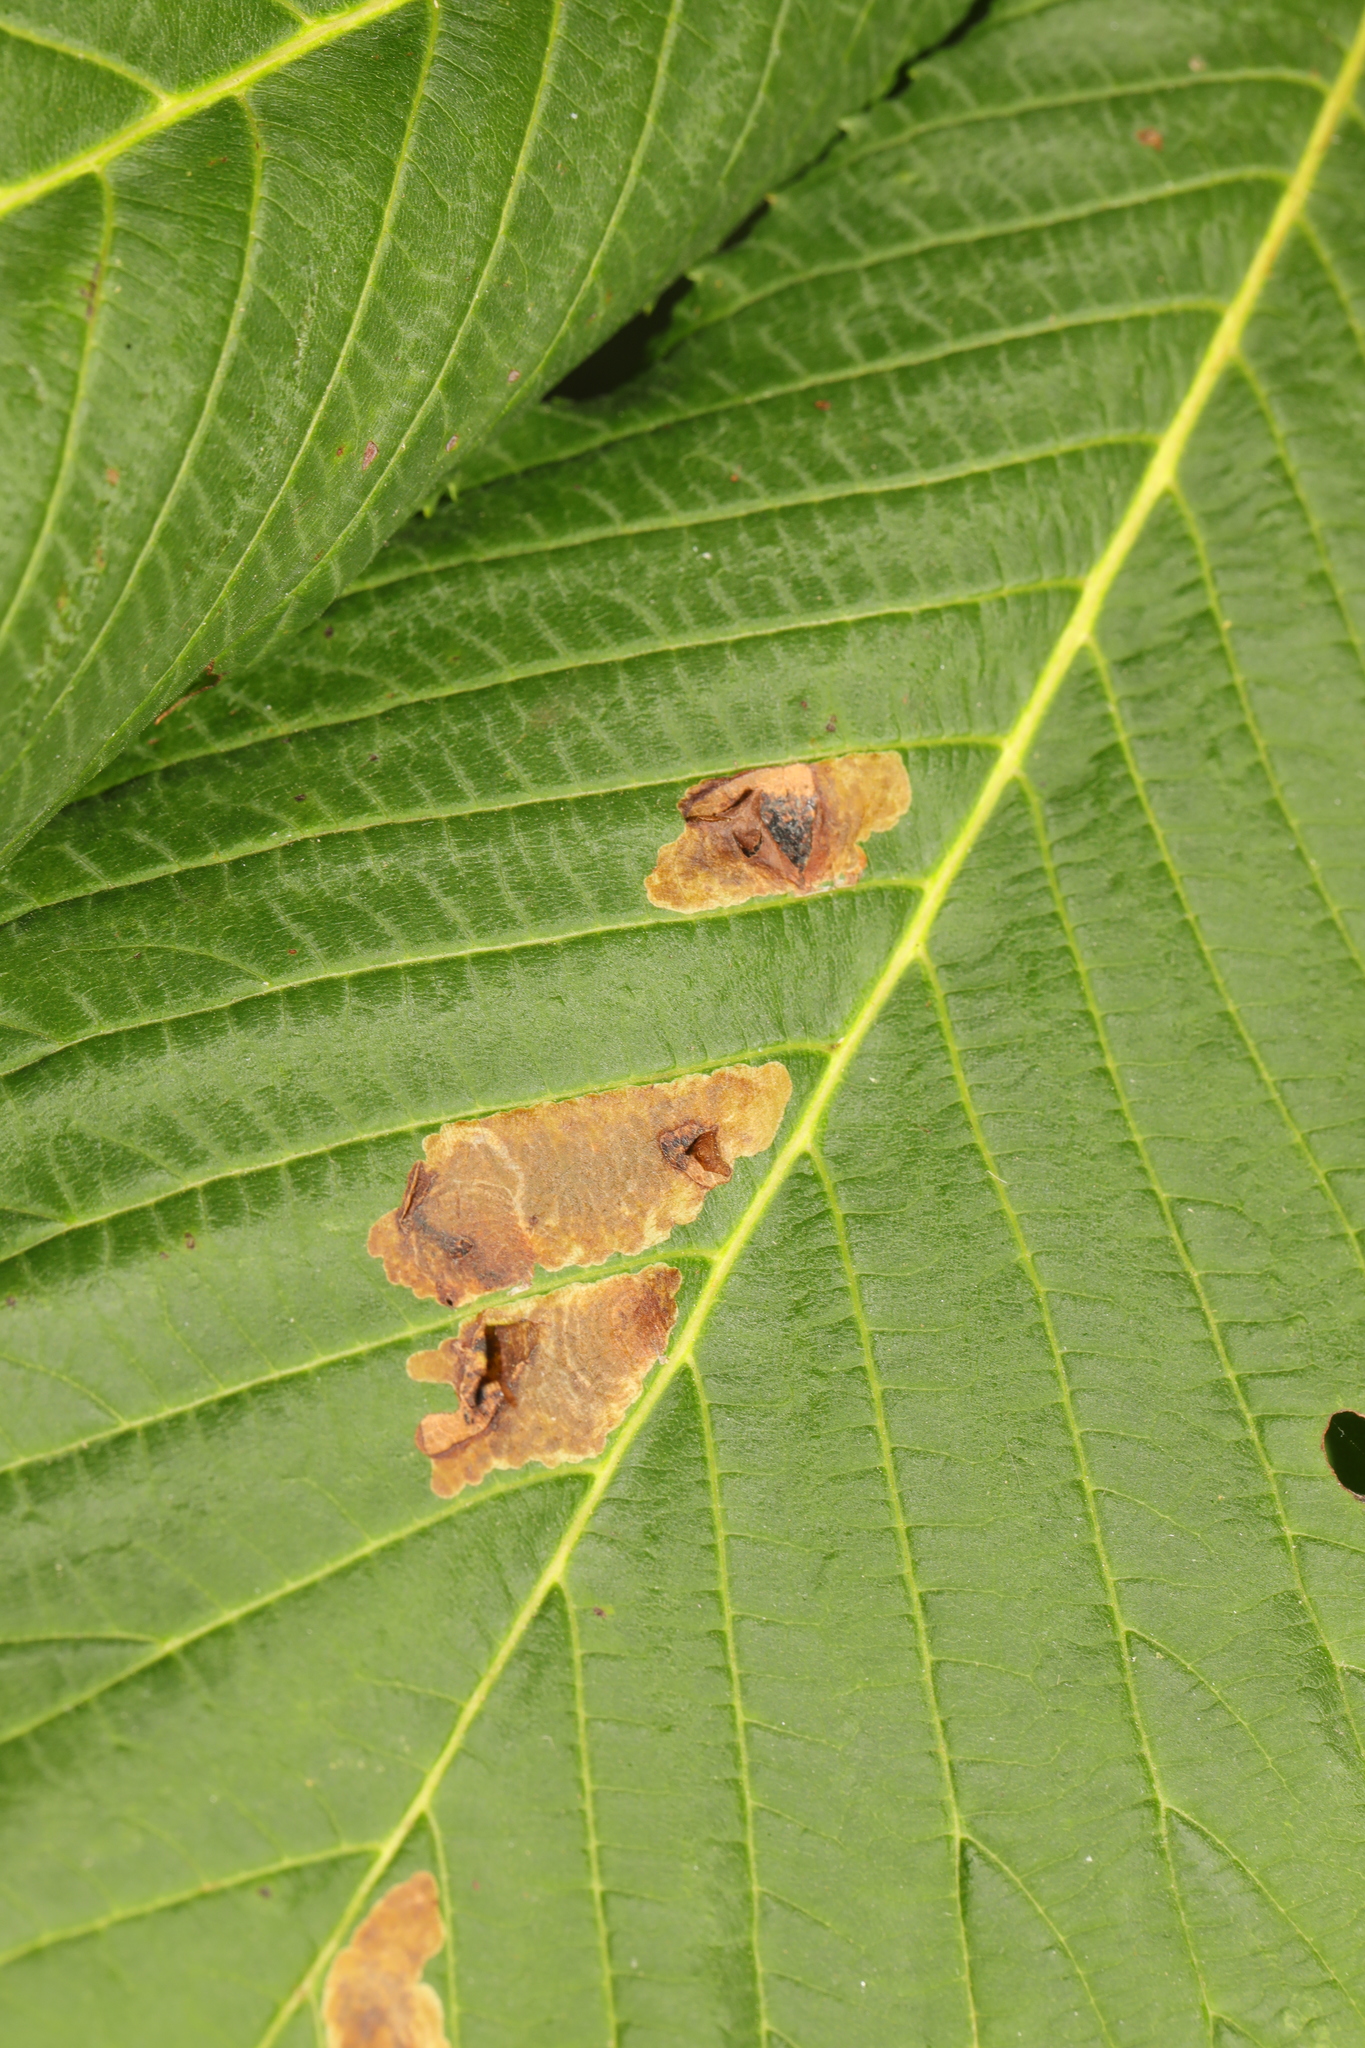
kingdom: Animalia
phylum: Arthropoda
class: Insecta
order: Lepidoptera
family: Gracillariidae
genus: Cameraria
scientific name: Cameraria ohridella
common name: Horse-chestnut leaf-miner
